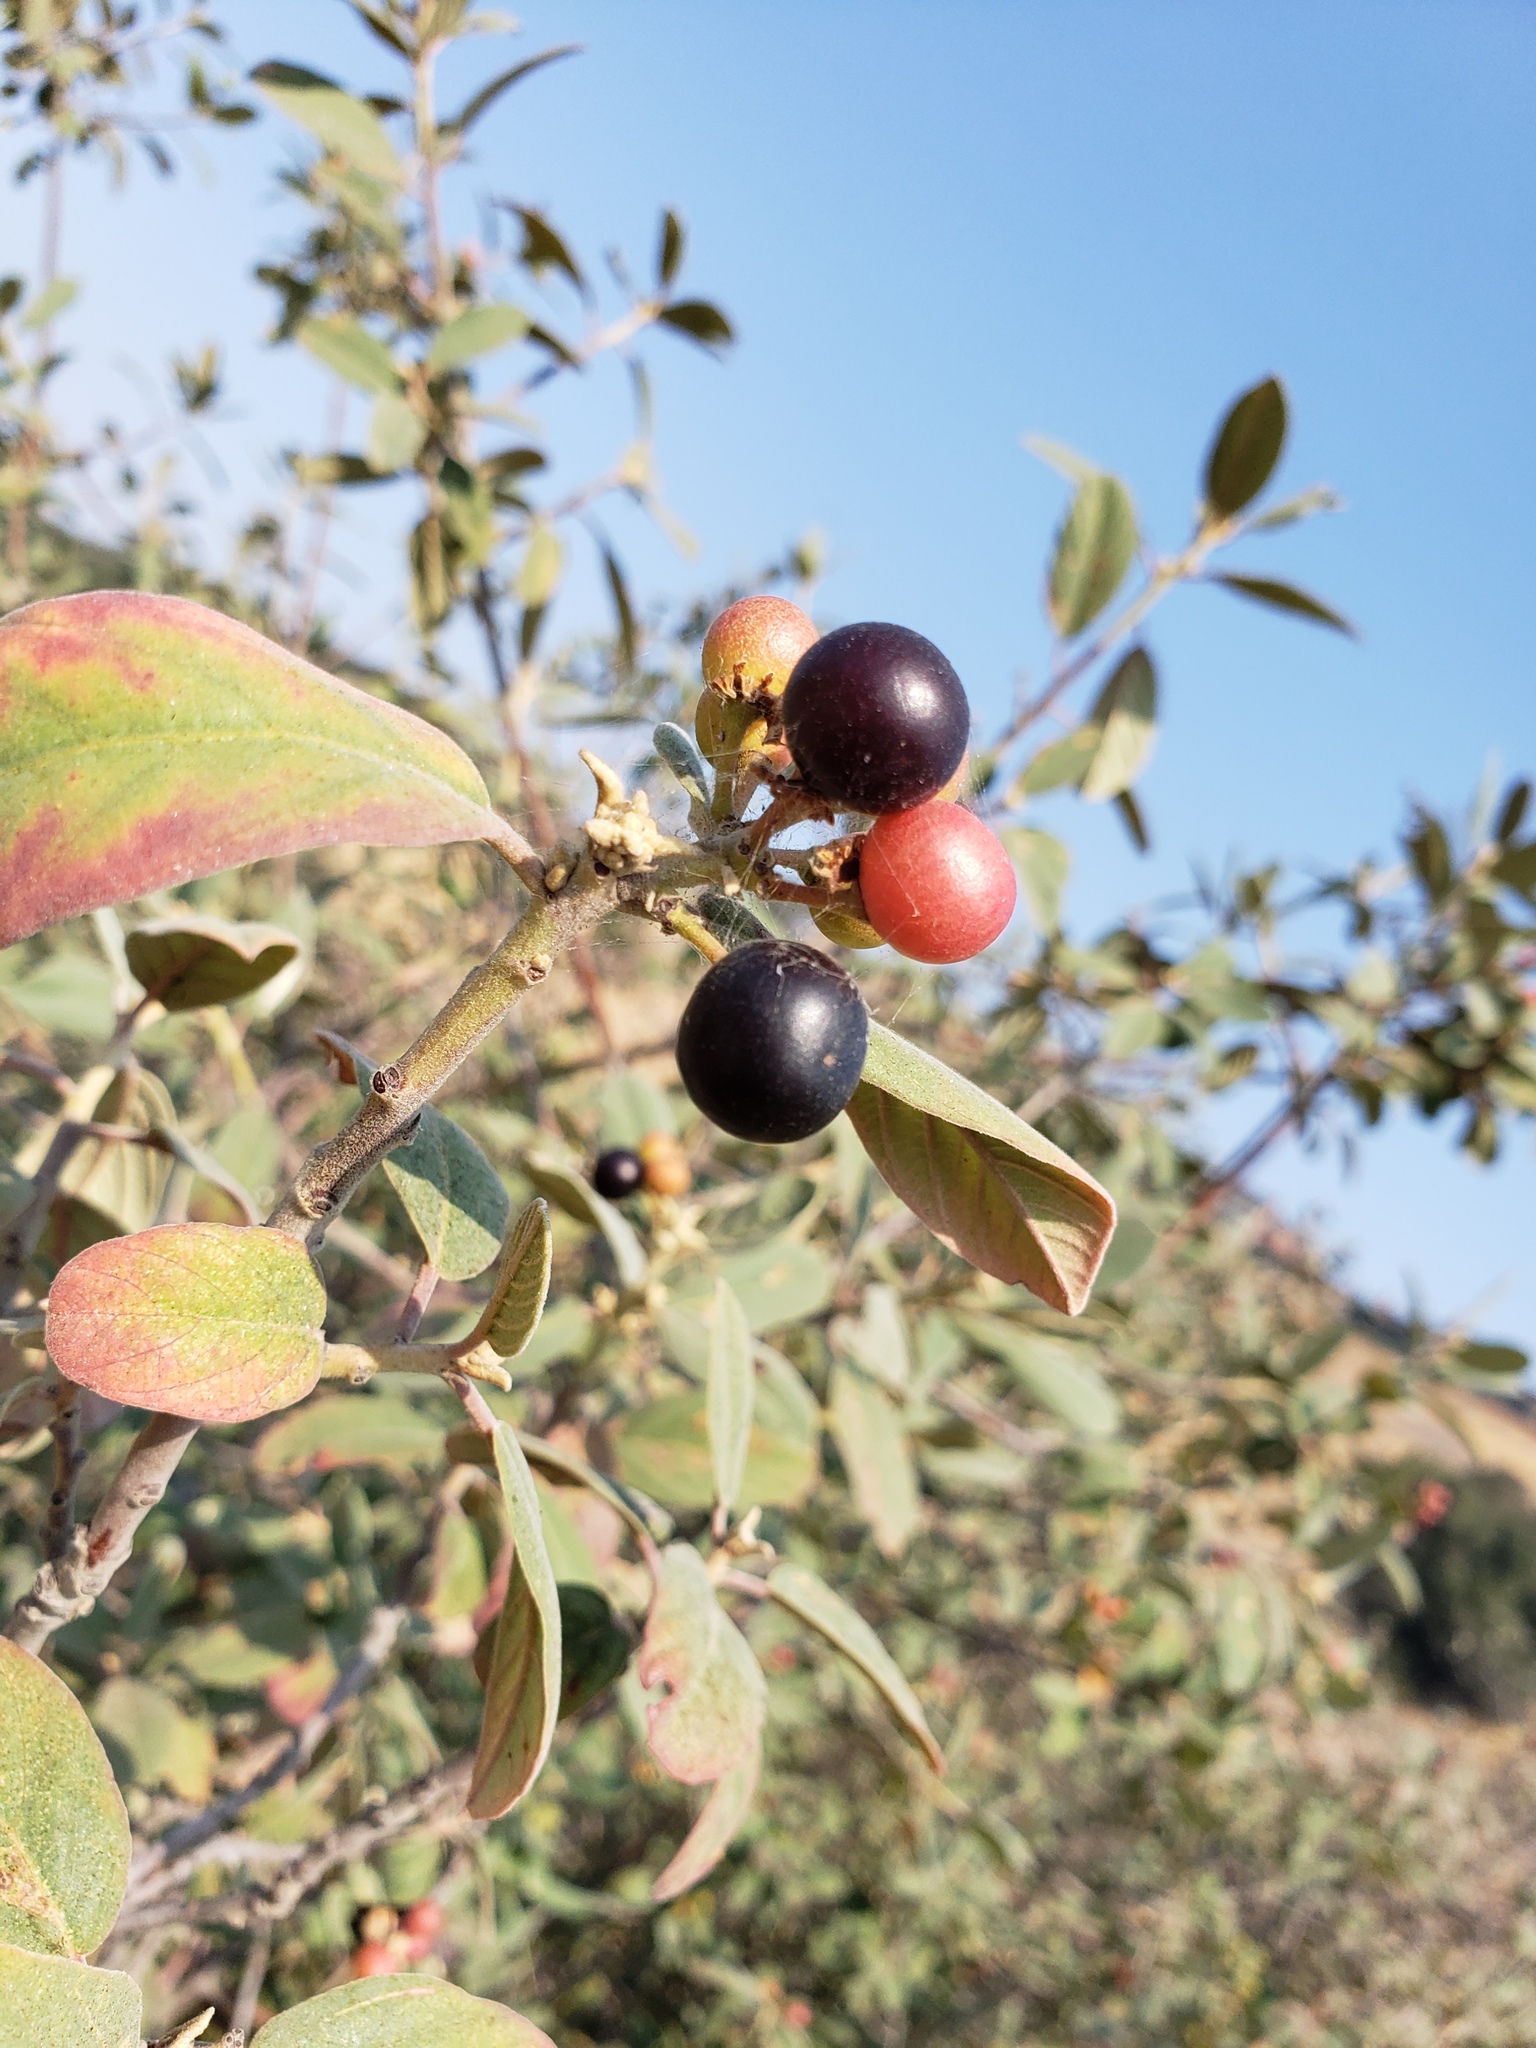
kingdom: Plantae
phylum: Tracheophyta
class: Magnoliopsida
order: Rosales
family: Rhamnaceae
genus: Frangula
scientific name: Frangula californica
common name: California buckthorn
